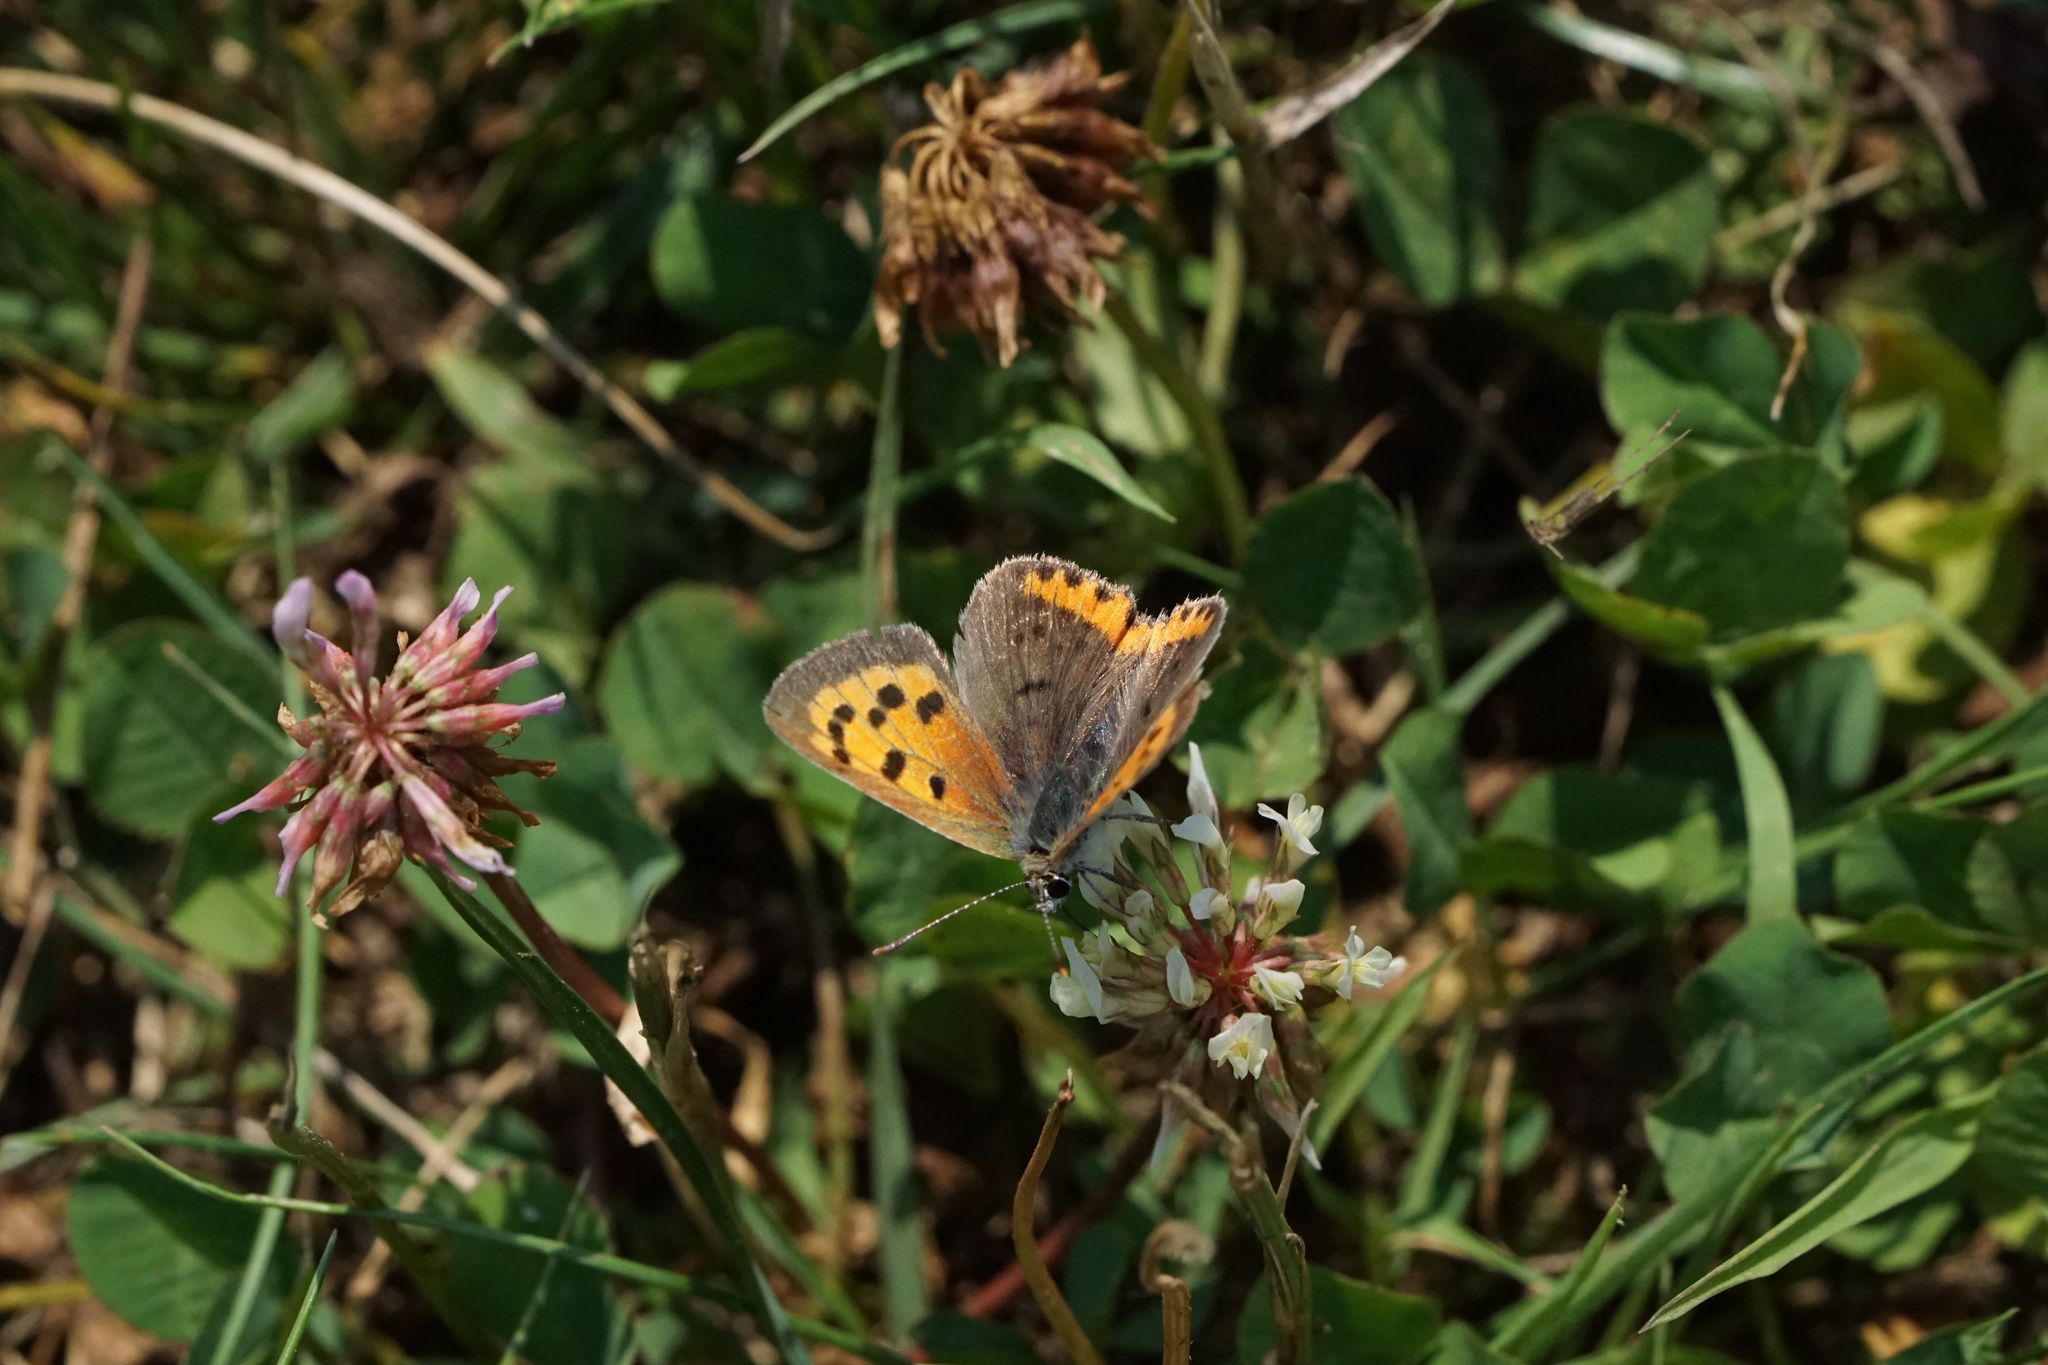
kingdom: Animalia
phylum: Arthropoda
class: Insecta
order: Lepidoptera
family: Lycaenidae
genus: Lycaena
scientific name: Lycaena hypophlaeas
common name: American copper
